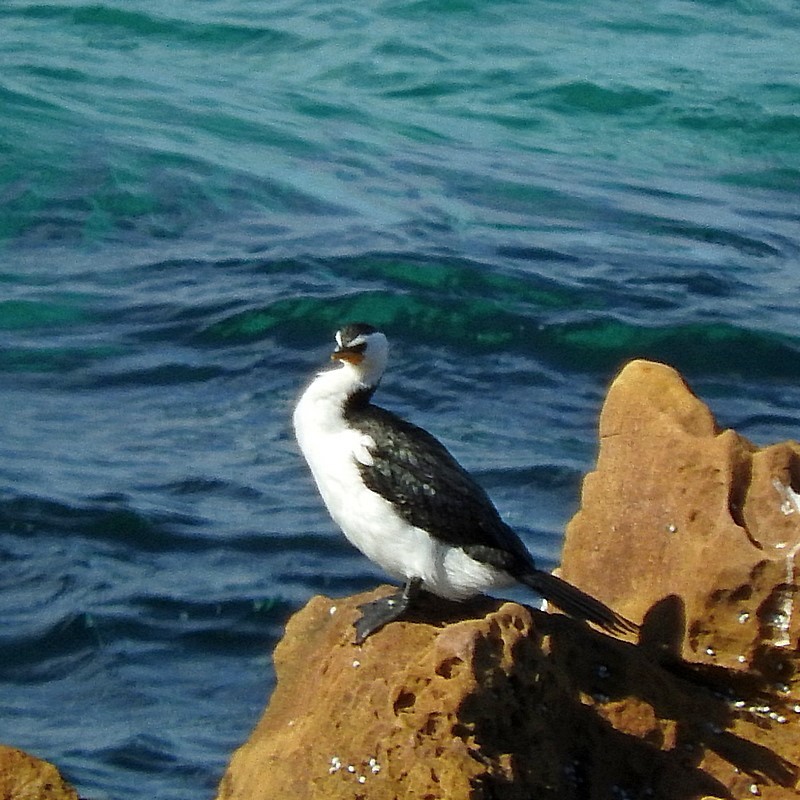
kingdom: Animalia
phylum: Chordata
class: Aves
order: Suliformes
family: Phalacrocoracidae
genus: Microcarbo
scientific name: Microcarbo melanoleucos
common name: Little pied cormorant
